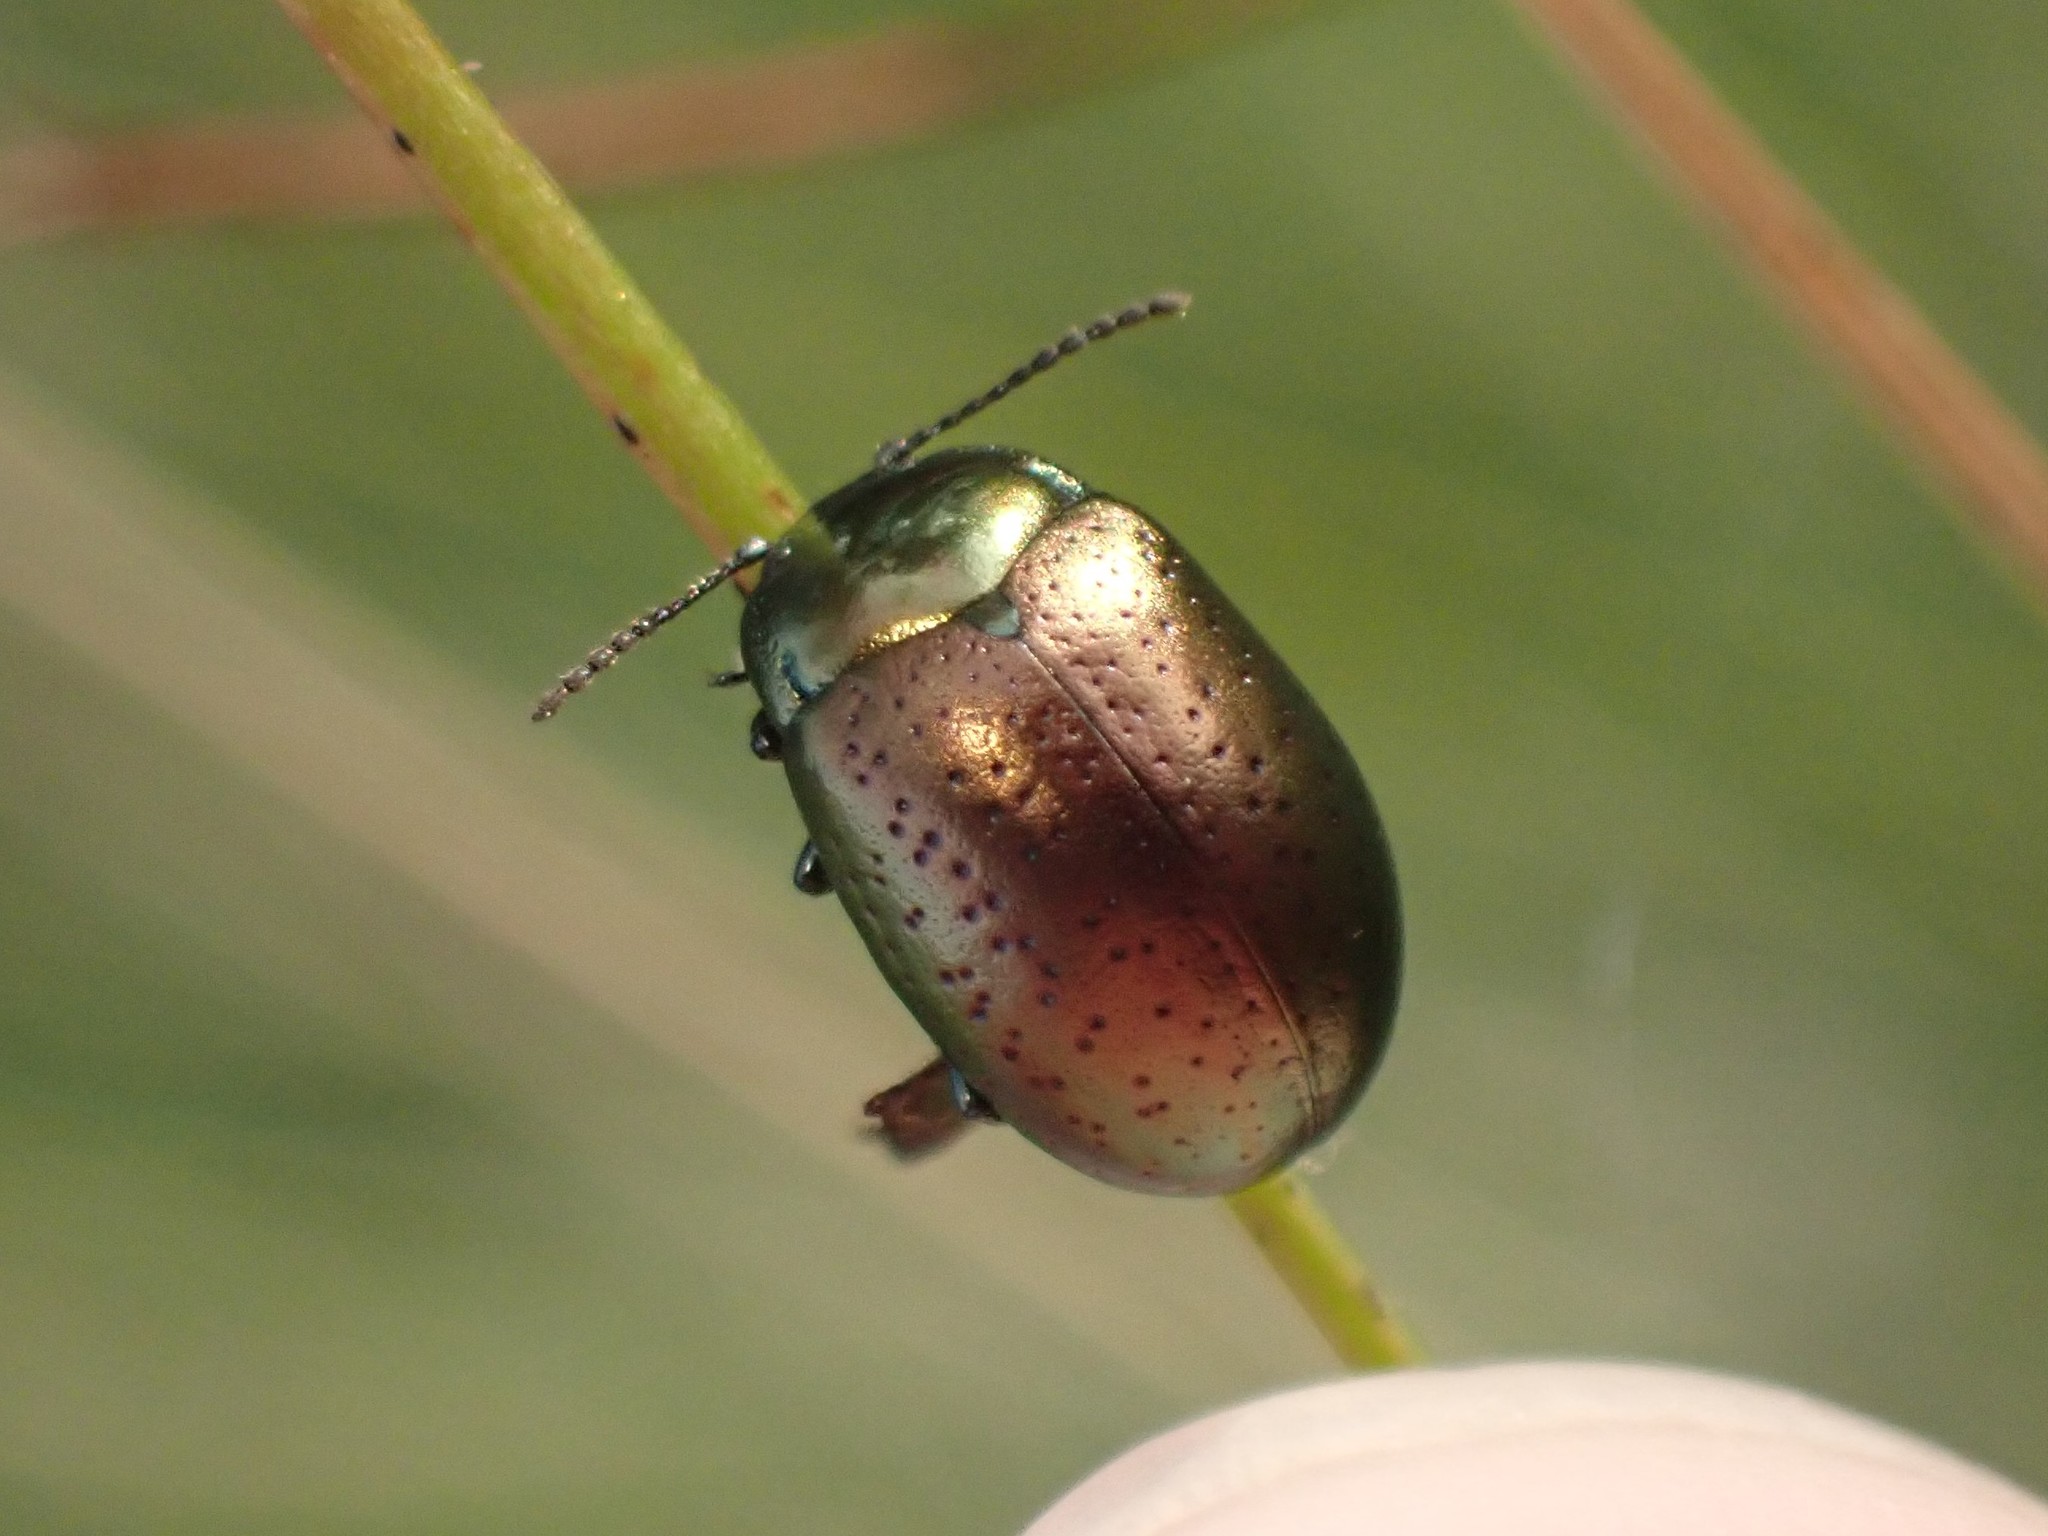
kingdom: Animalia
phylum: Arthropoda
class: Insecta
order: Coleoptera
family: Chrysomelidae
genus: Chrysolina
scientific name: Chrysolina hyperici
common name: St. johnswort beetle
